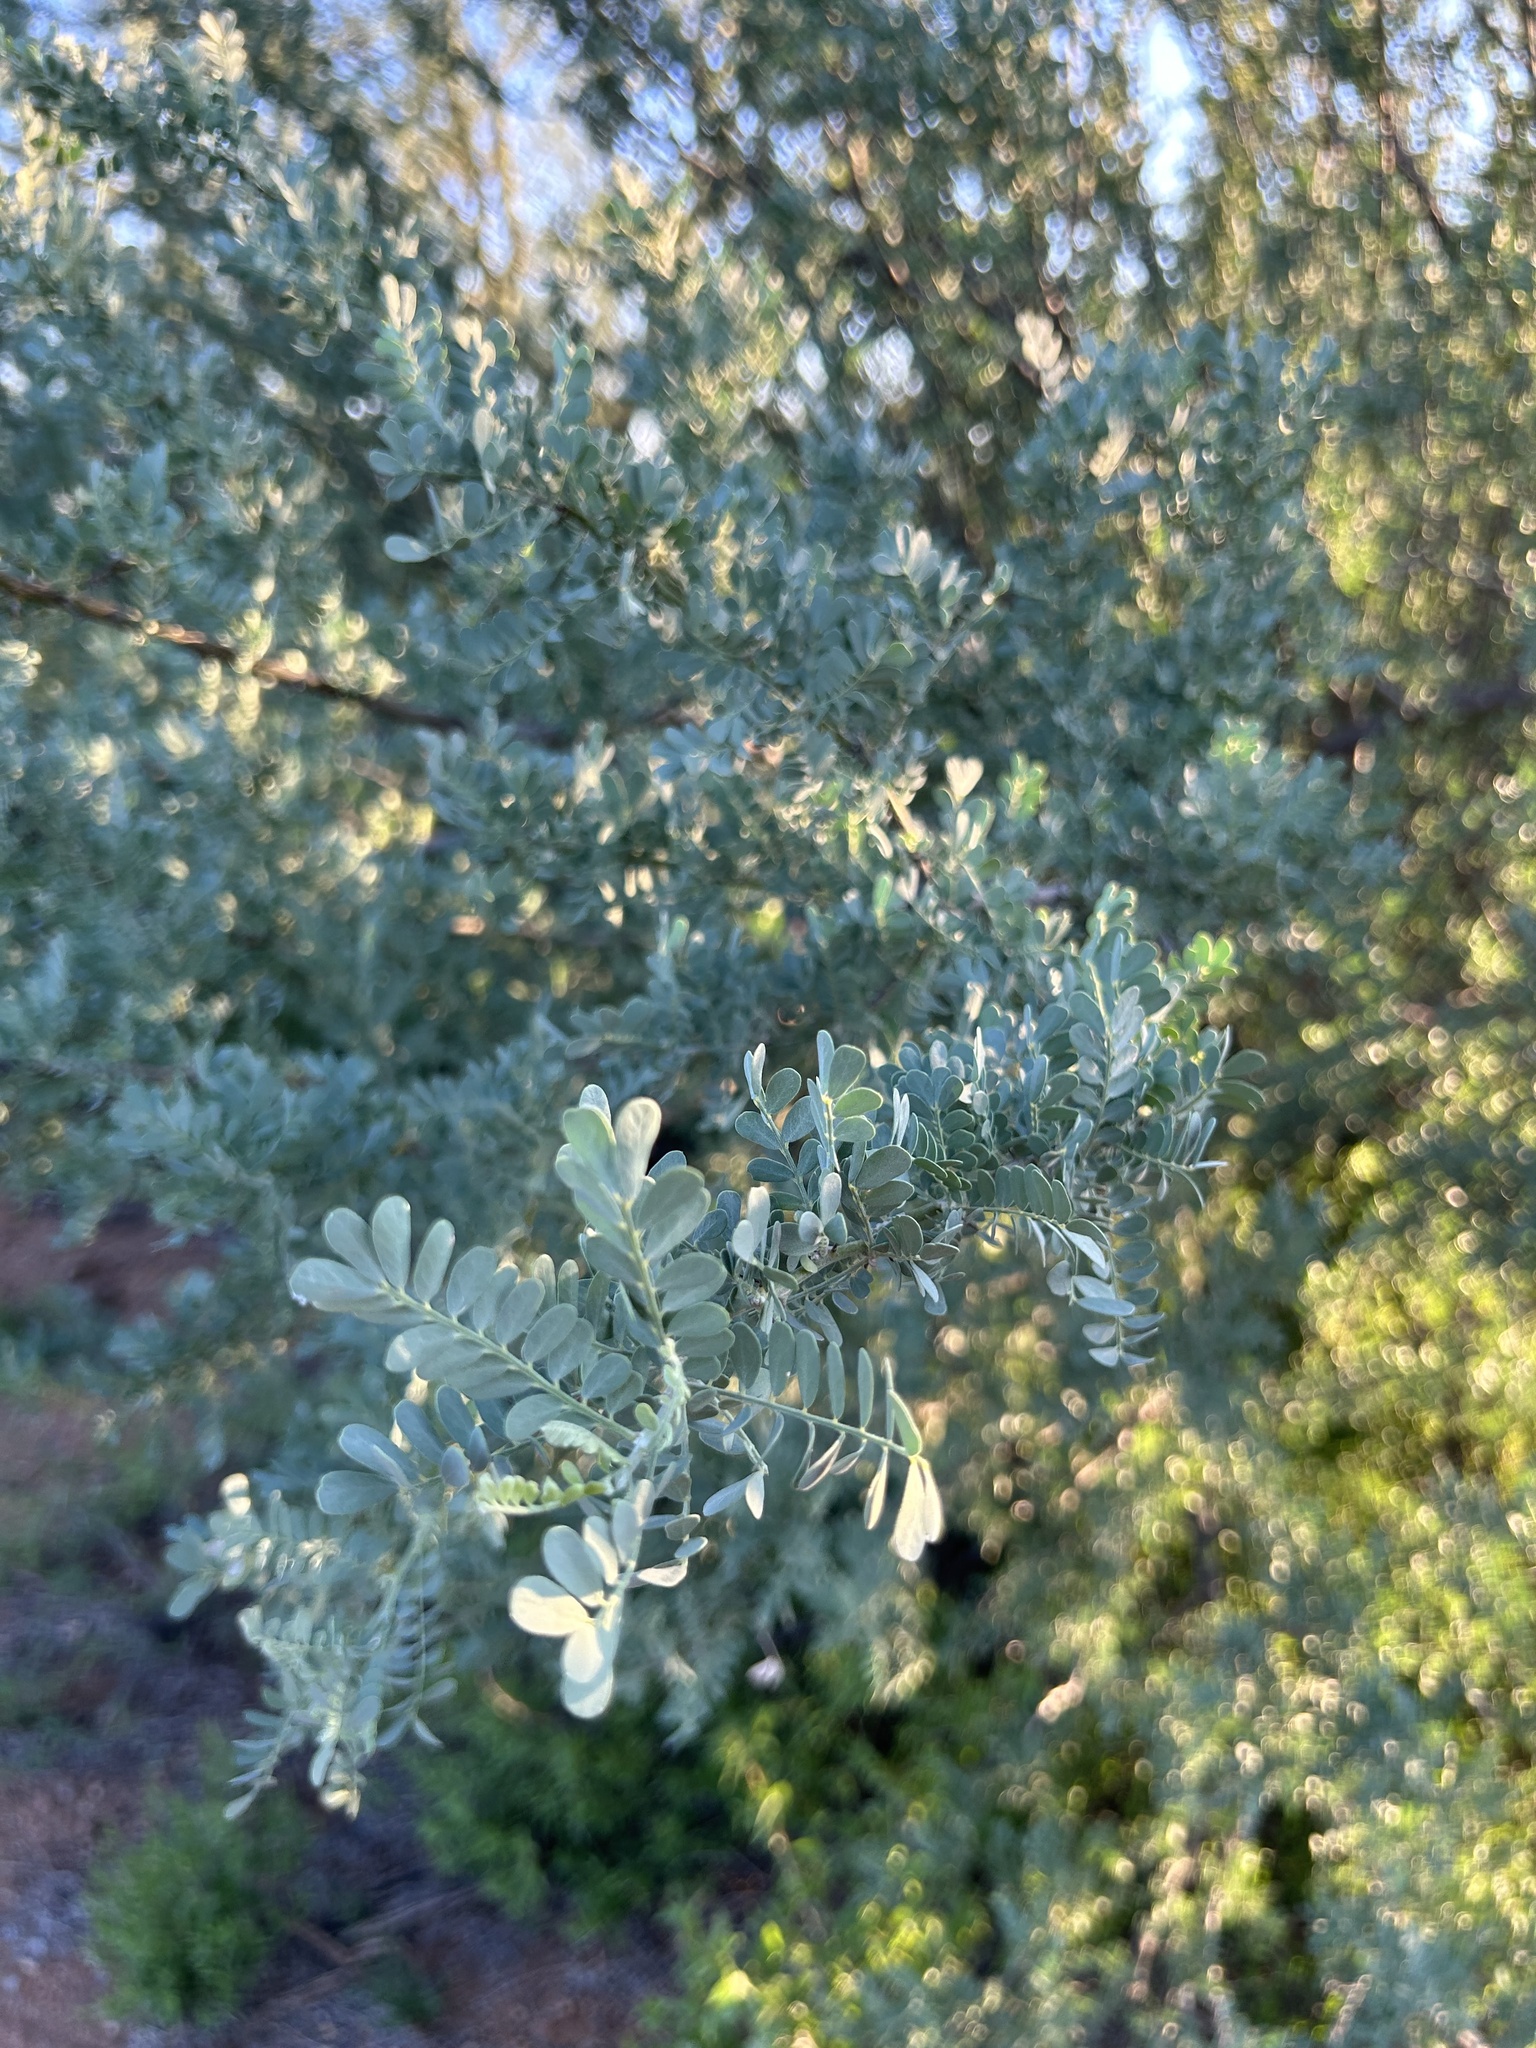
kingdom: Plantae
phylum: Tracheophyta
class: Magnoliopsida
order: Fabales
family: Fabaceae
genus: Olneya
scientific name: Olneya tesota
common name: Desert ironwood
